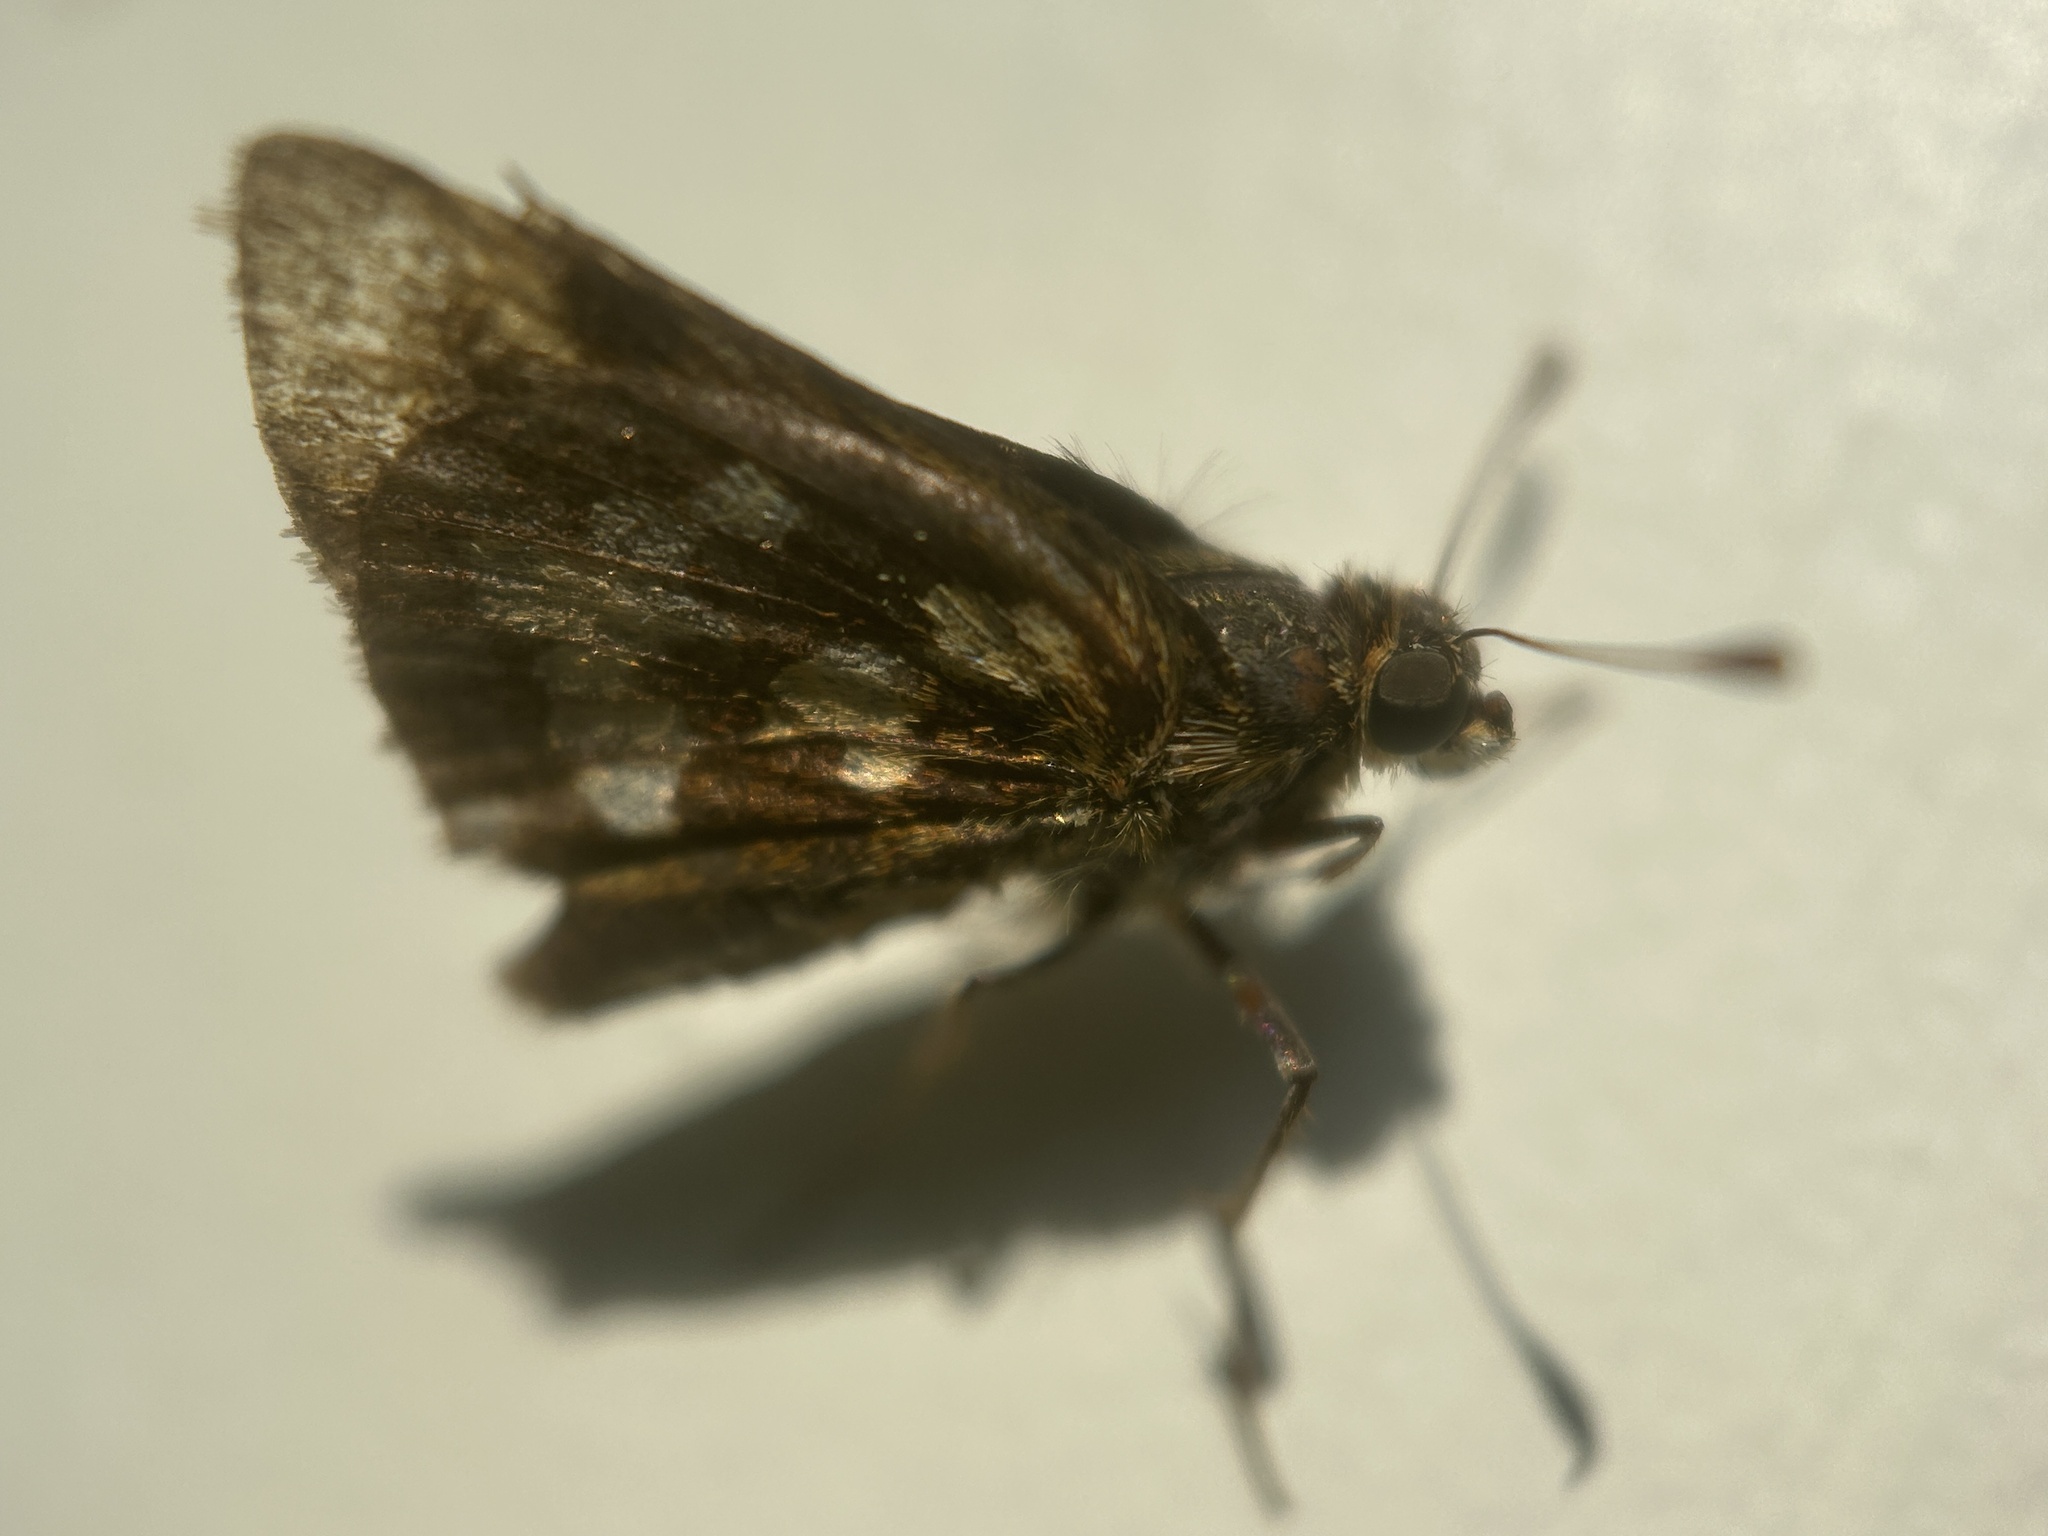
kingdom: Animalia
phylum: Arthropoda
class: Insecta
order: Lepidoptera
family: Hesperiidae
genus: Polites
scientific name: Polites coras
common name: Peck's skipper
